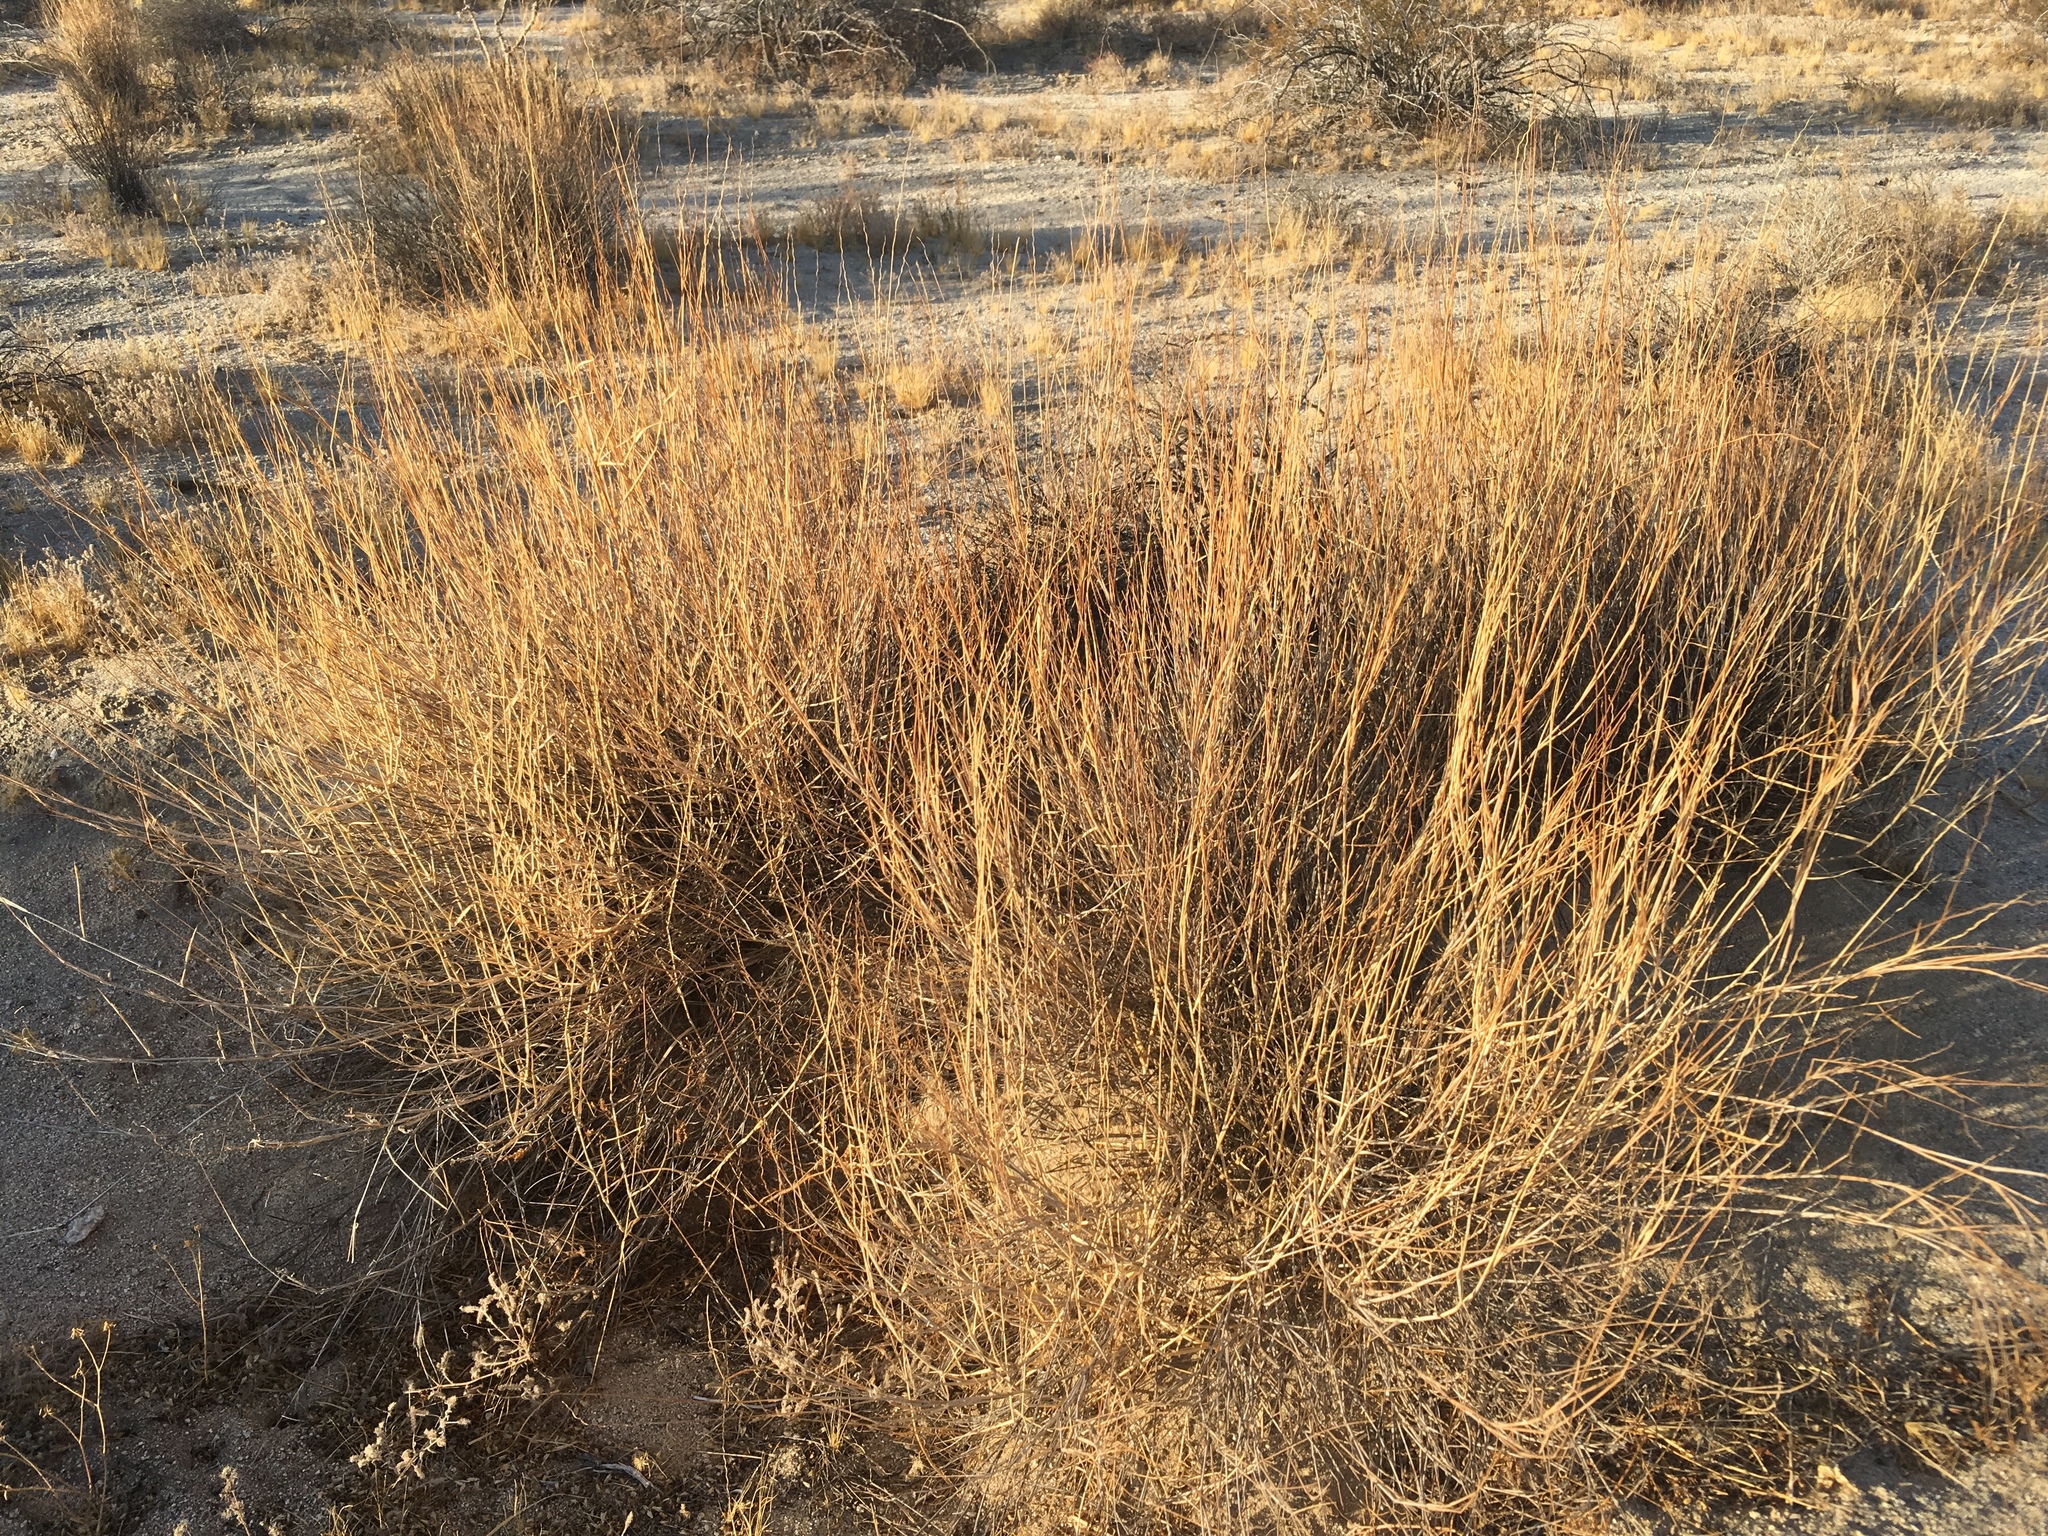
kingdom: Plantae
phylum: Tracheophyta
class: Liliopsida
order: Poales
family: Poaceae
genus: Hilaria
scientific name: Hilaria rigida
